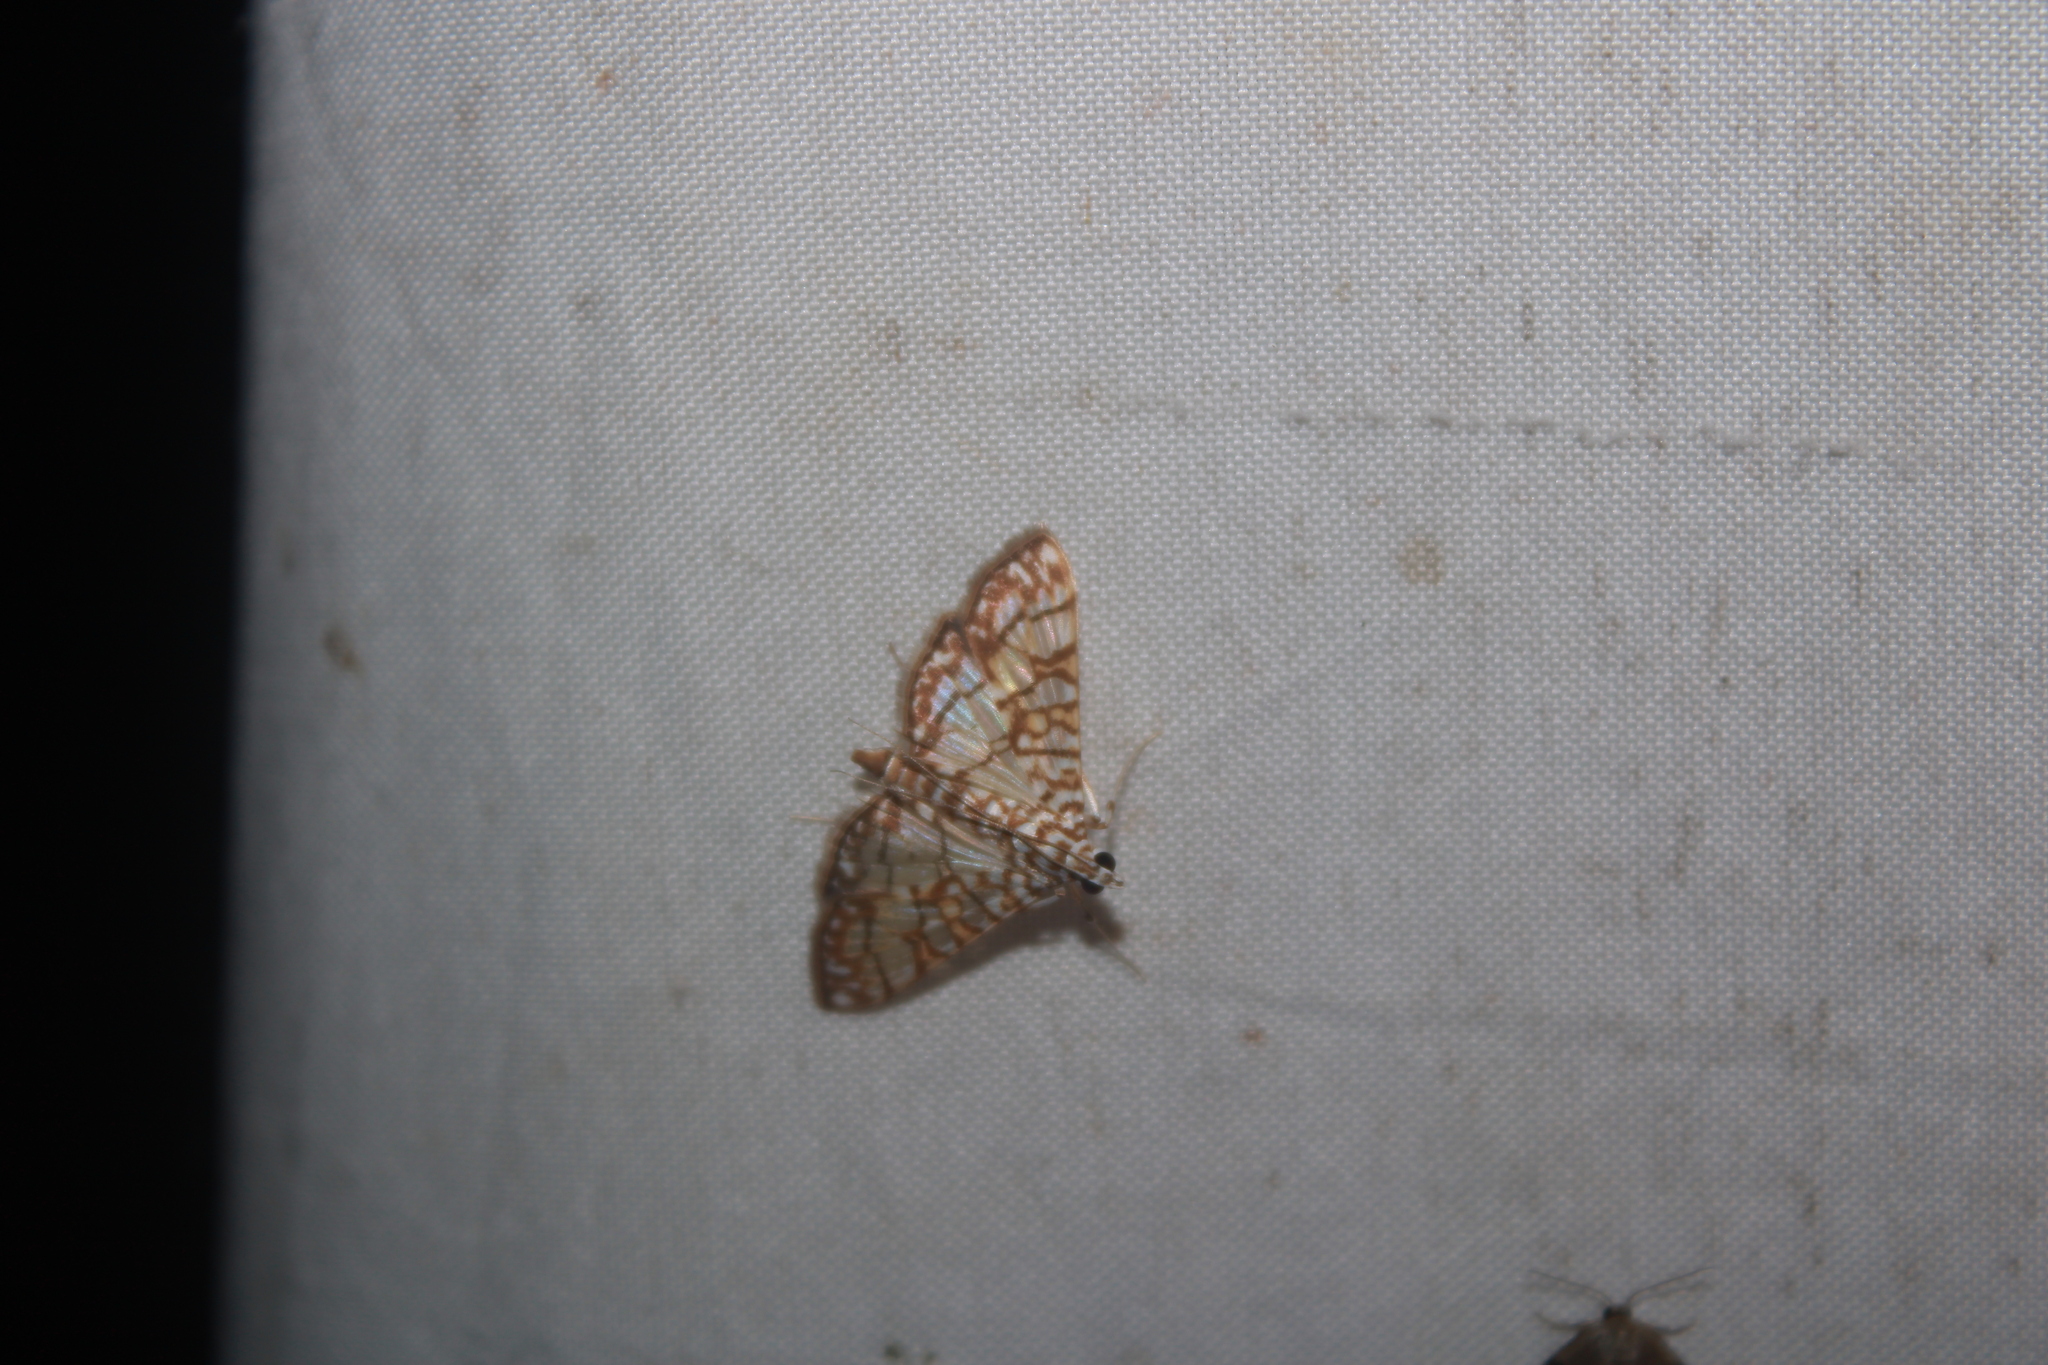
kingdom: Animalia
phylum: Arthropoda
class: Insecta
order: Lepidoptera
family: Crambidae
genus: Synclera
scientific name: Synclera traducalis
